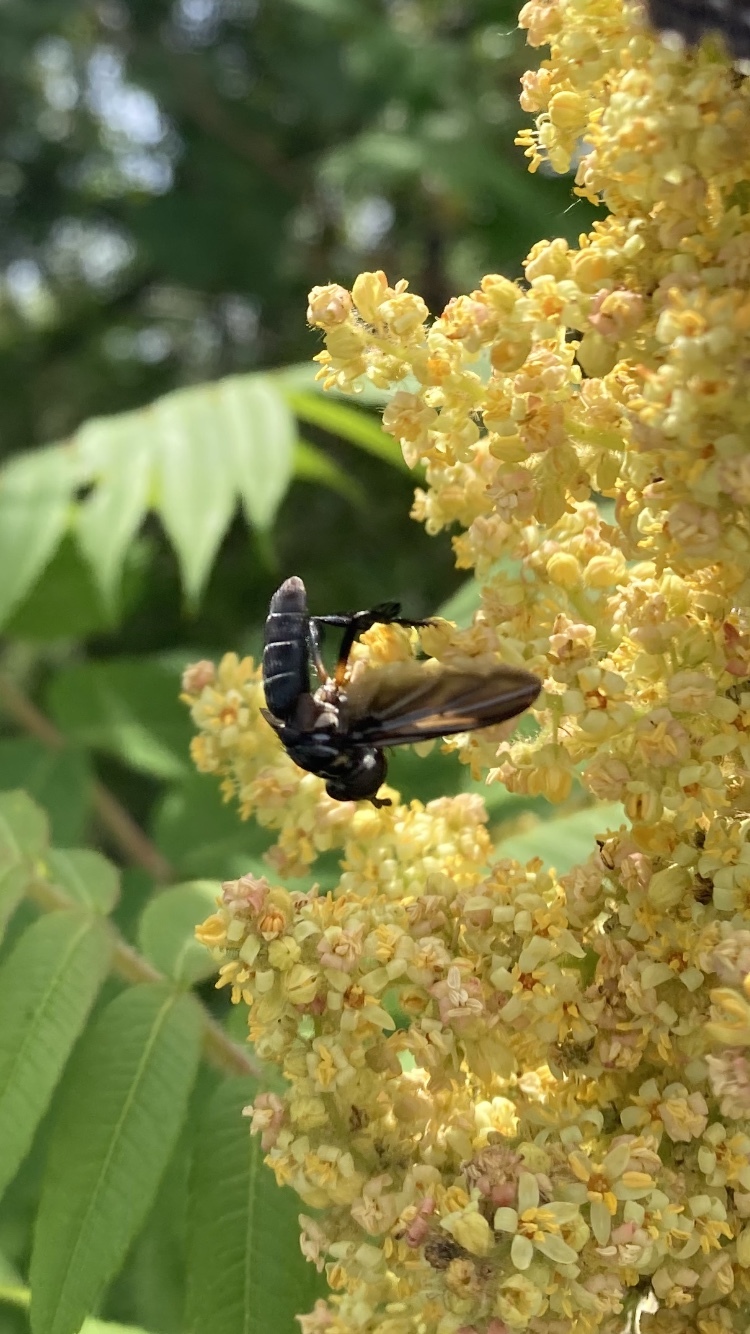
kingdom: Animalia
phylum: Arthropoda
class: Insecta
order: Diptera
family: Tachinidae
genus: Trichopoda
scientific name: Trichopoda lanipes
